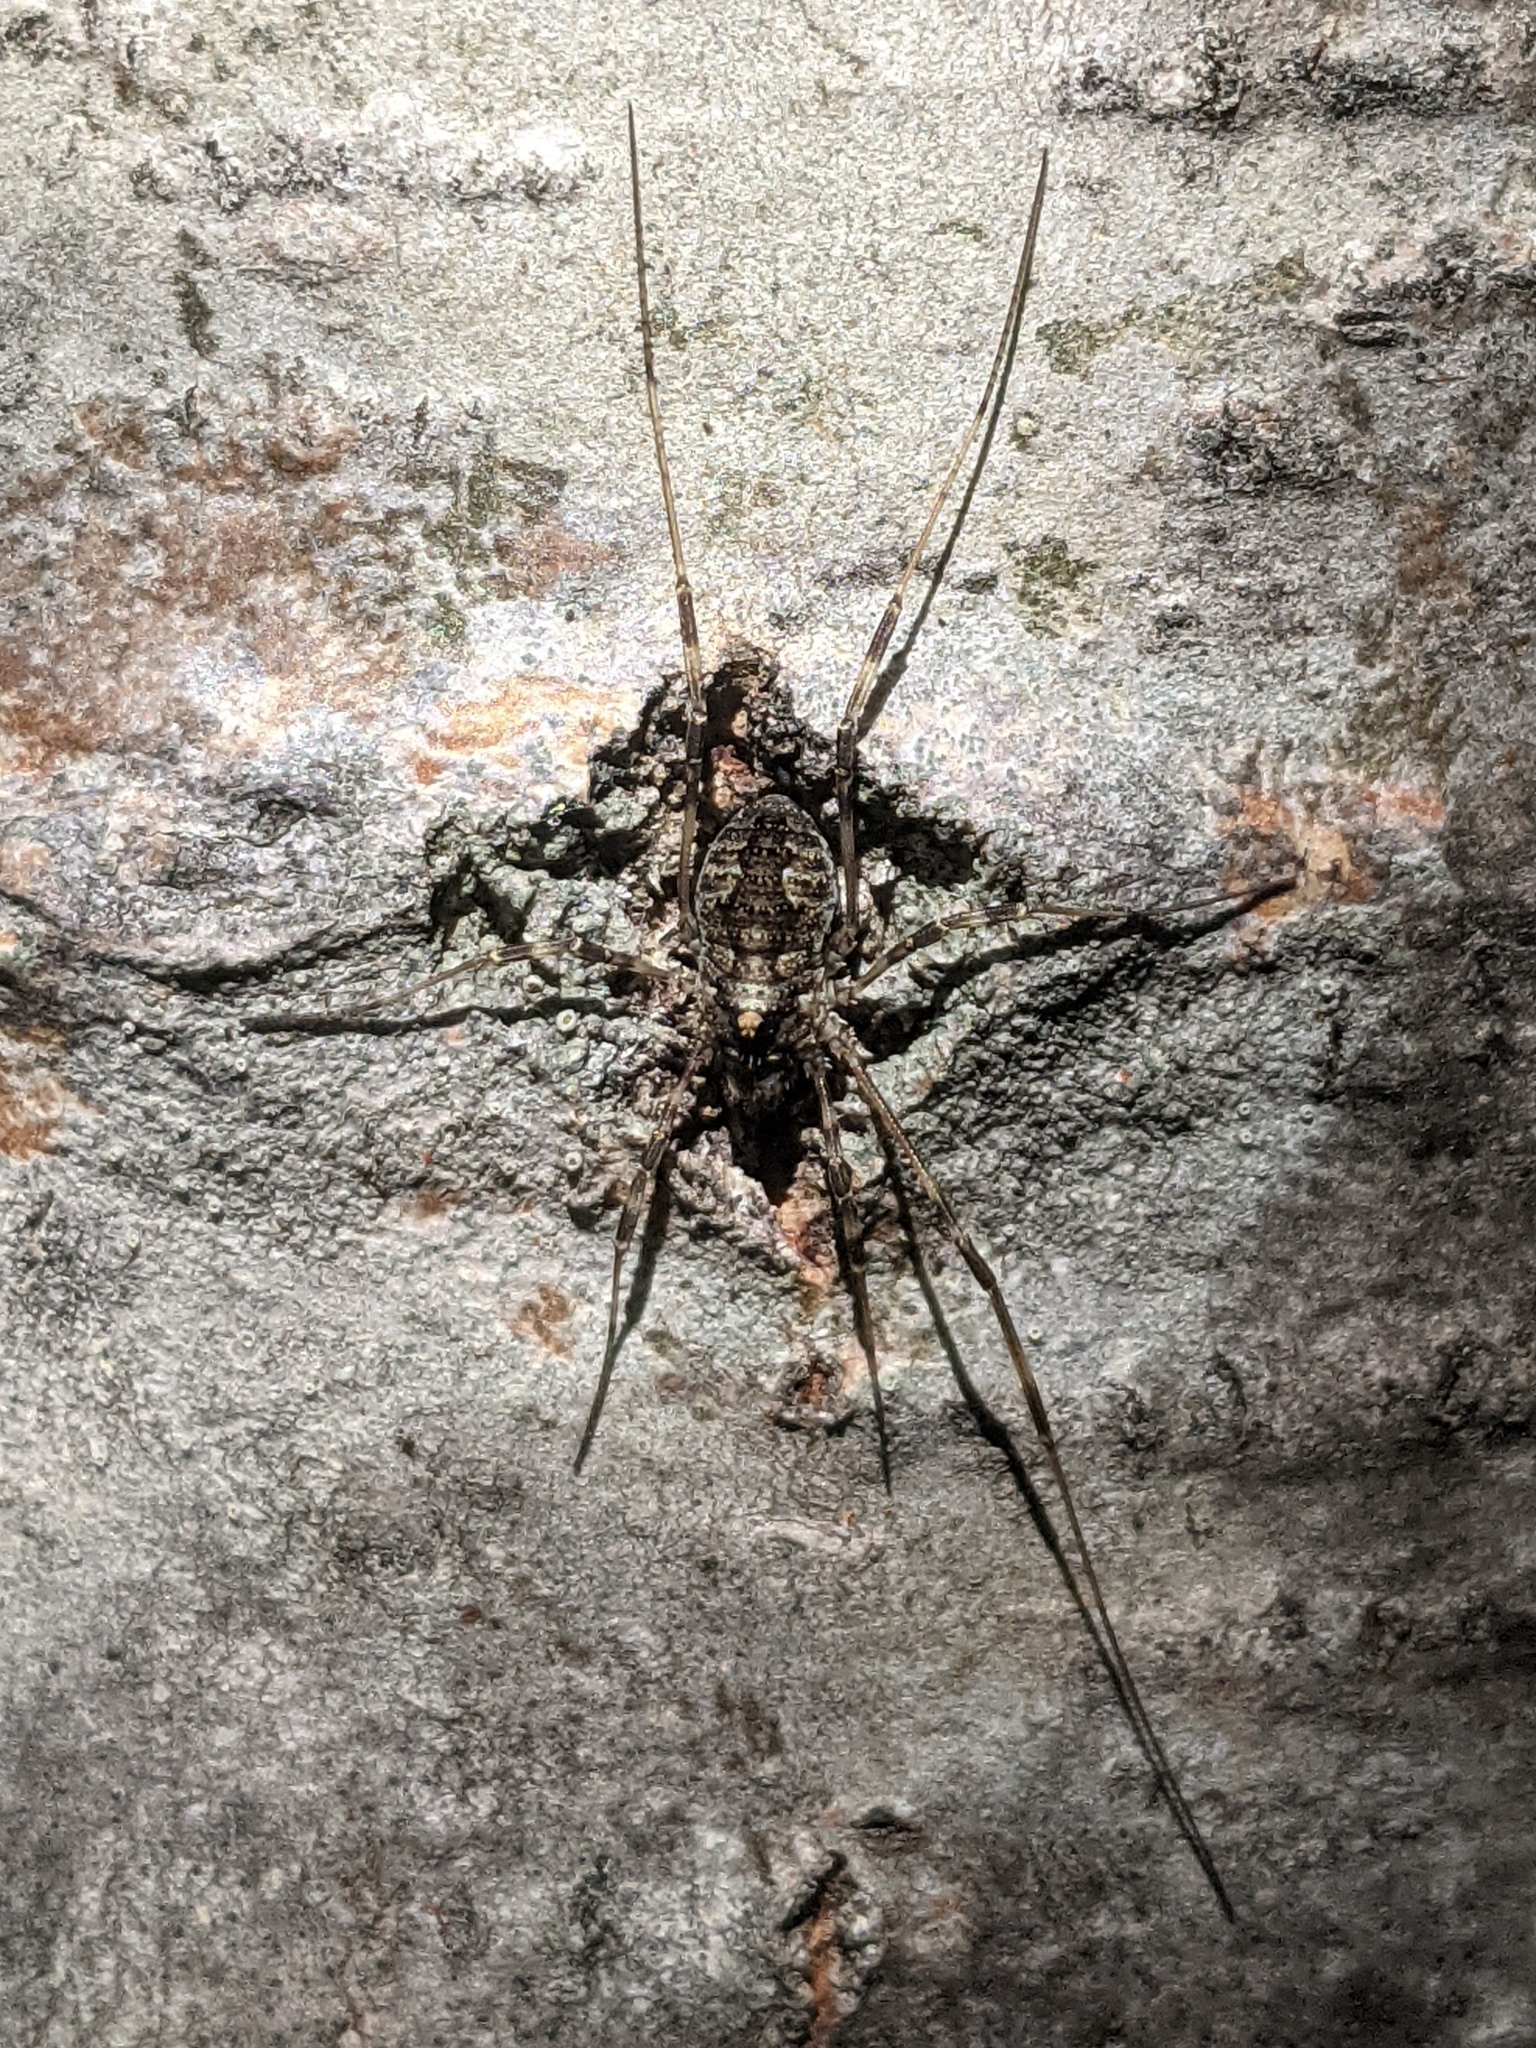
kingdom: Animalia
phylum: Arthropoda
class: Arachnida
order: Opiliones
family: Phalangiidae
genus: Odiellus
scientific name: Odiellus pictus
